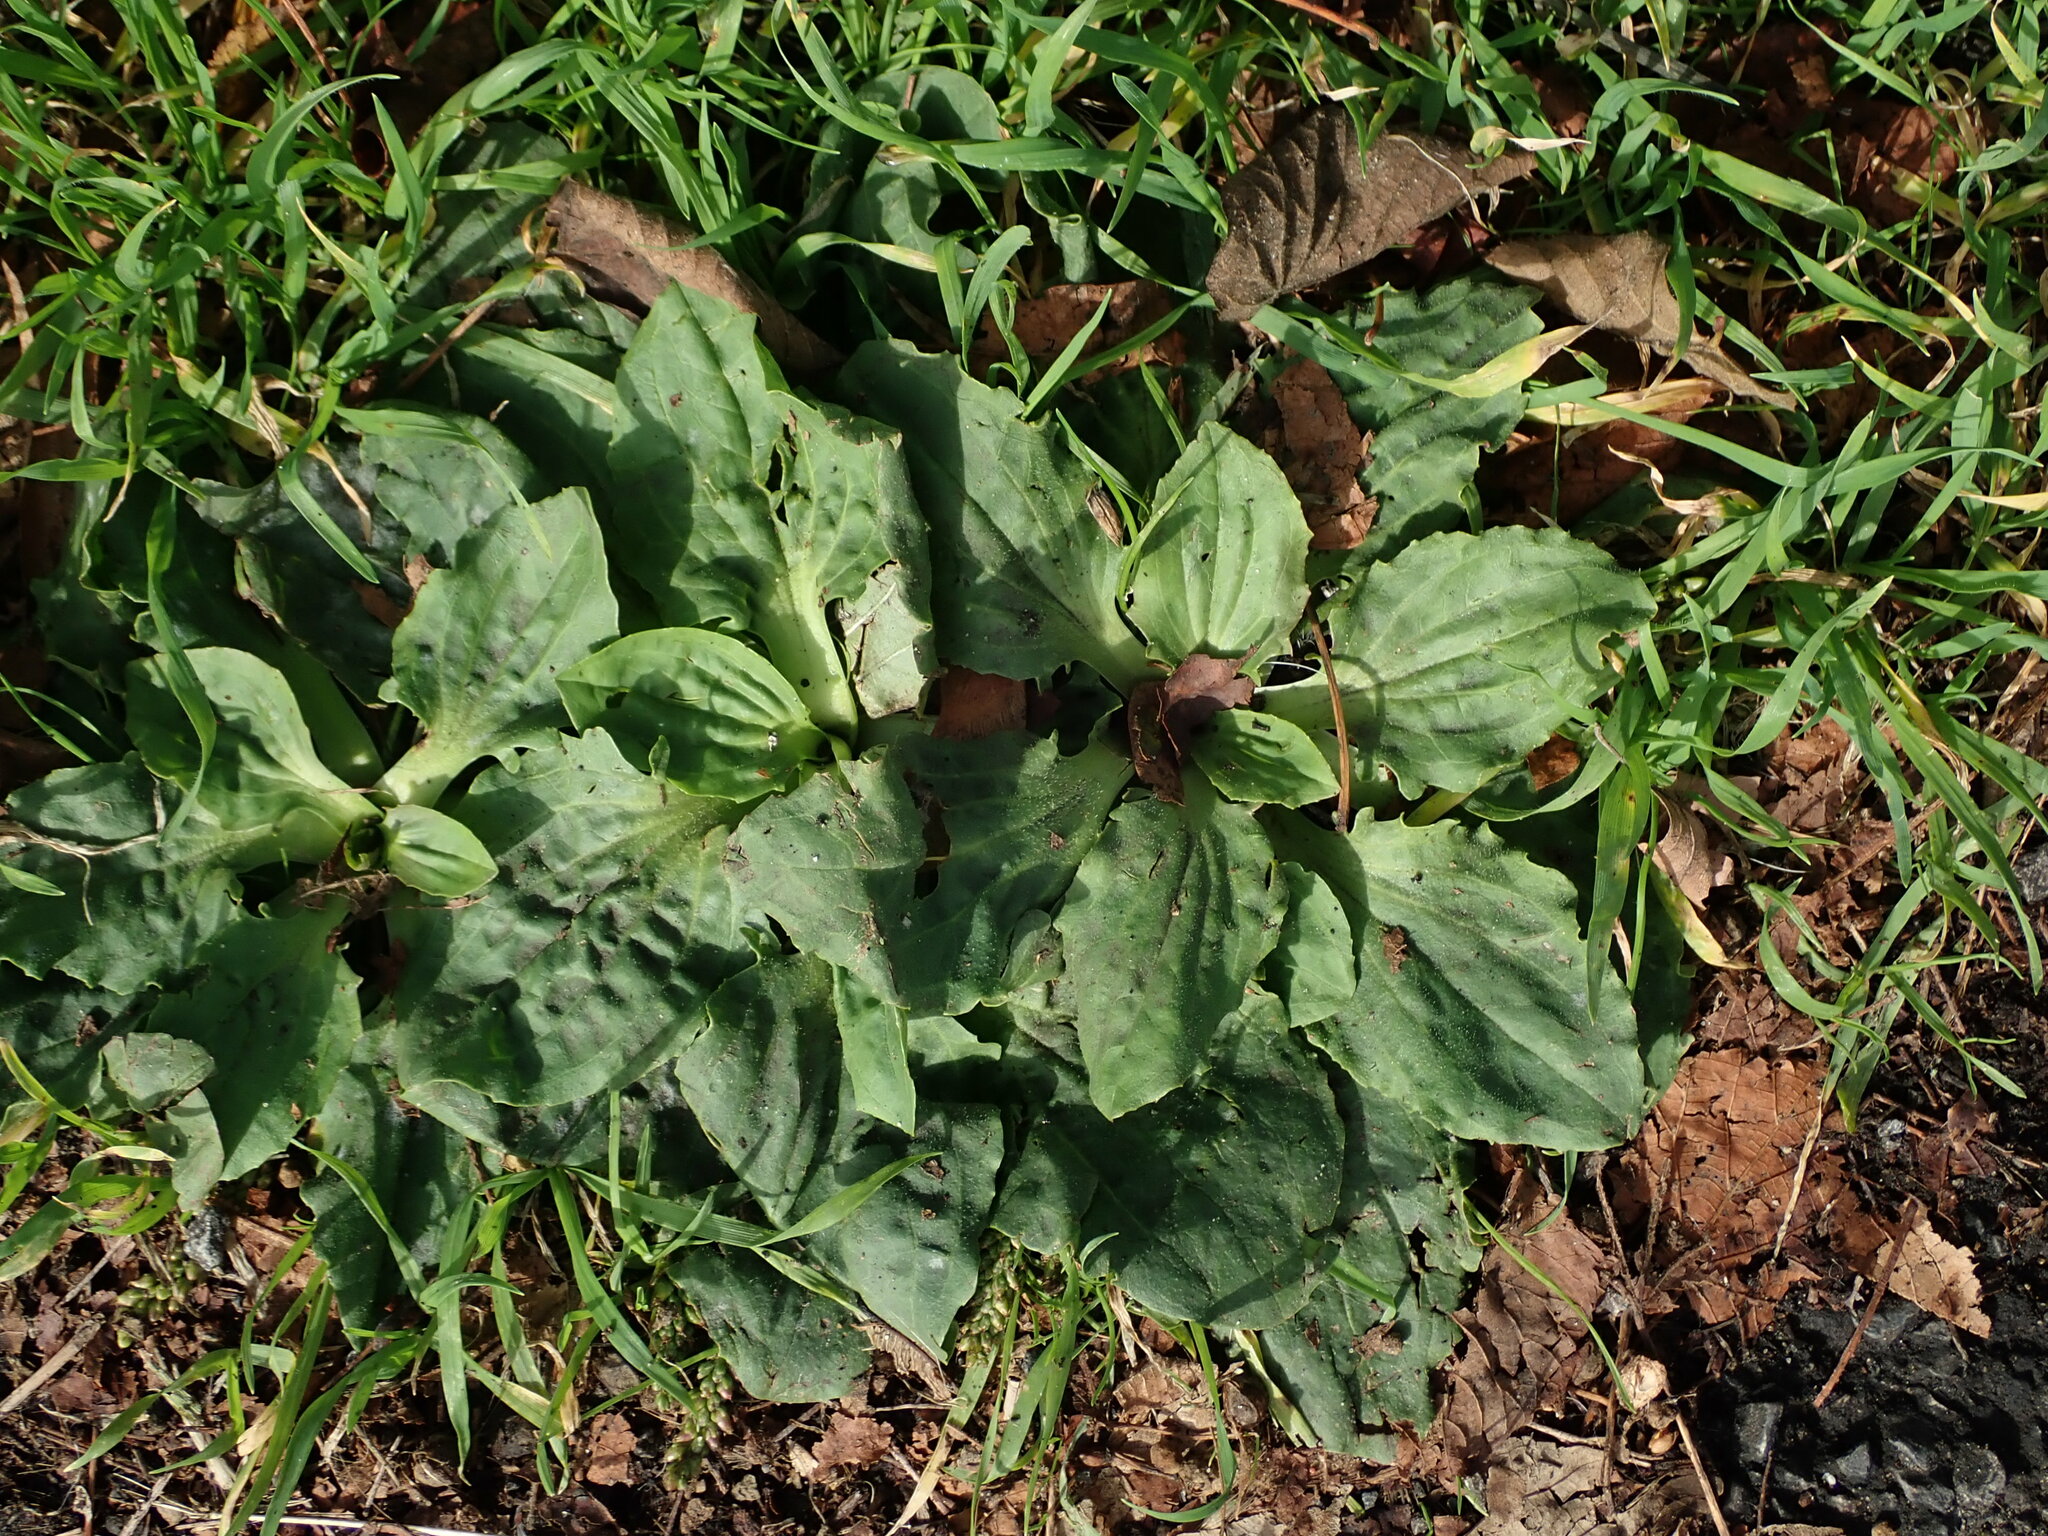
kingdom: Plantae
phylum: Tracheophyta
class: Magnoliopsida
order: Lamiales
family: Plantaginaceae
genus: Plantago
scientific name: Plantago major
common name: Common plantain
